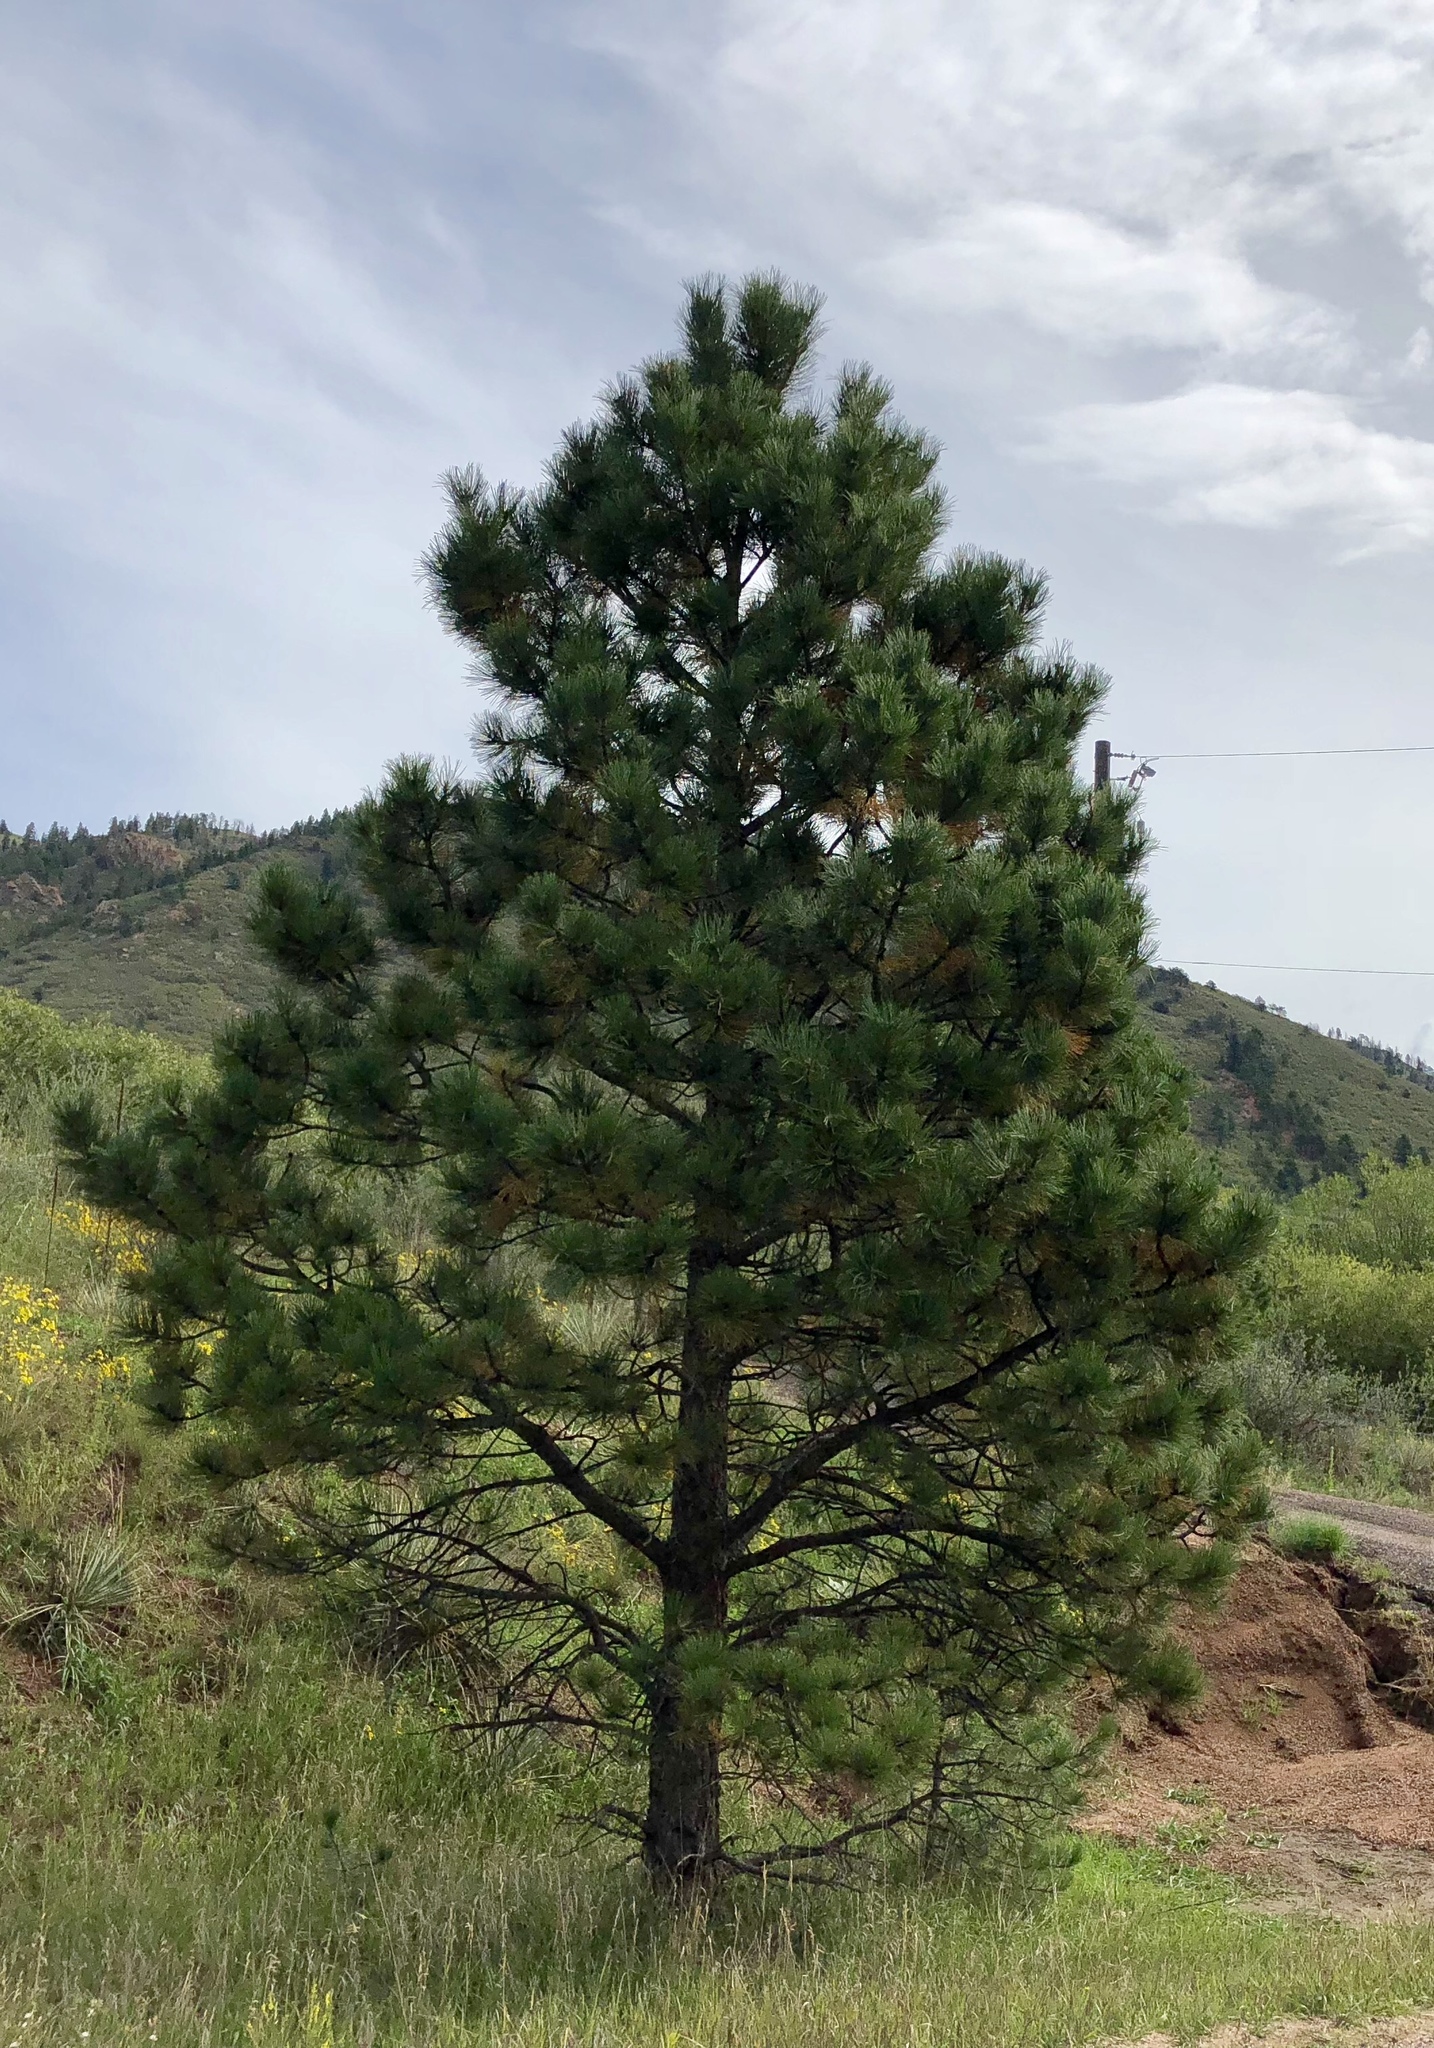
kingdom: Plantae
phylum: Tracheophyta
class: Pinopsida
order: Pinales
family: Pinaceae
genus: Pinus
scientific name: Pinus ponderosa
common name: Western yellow-pine
